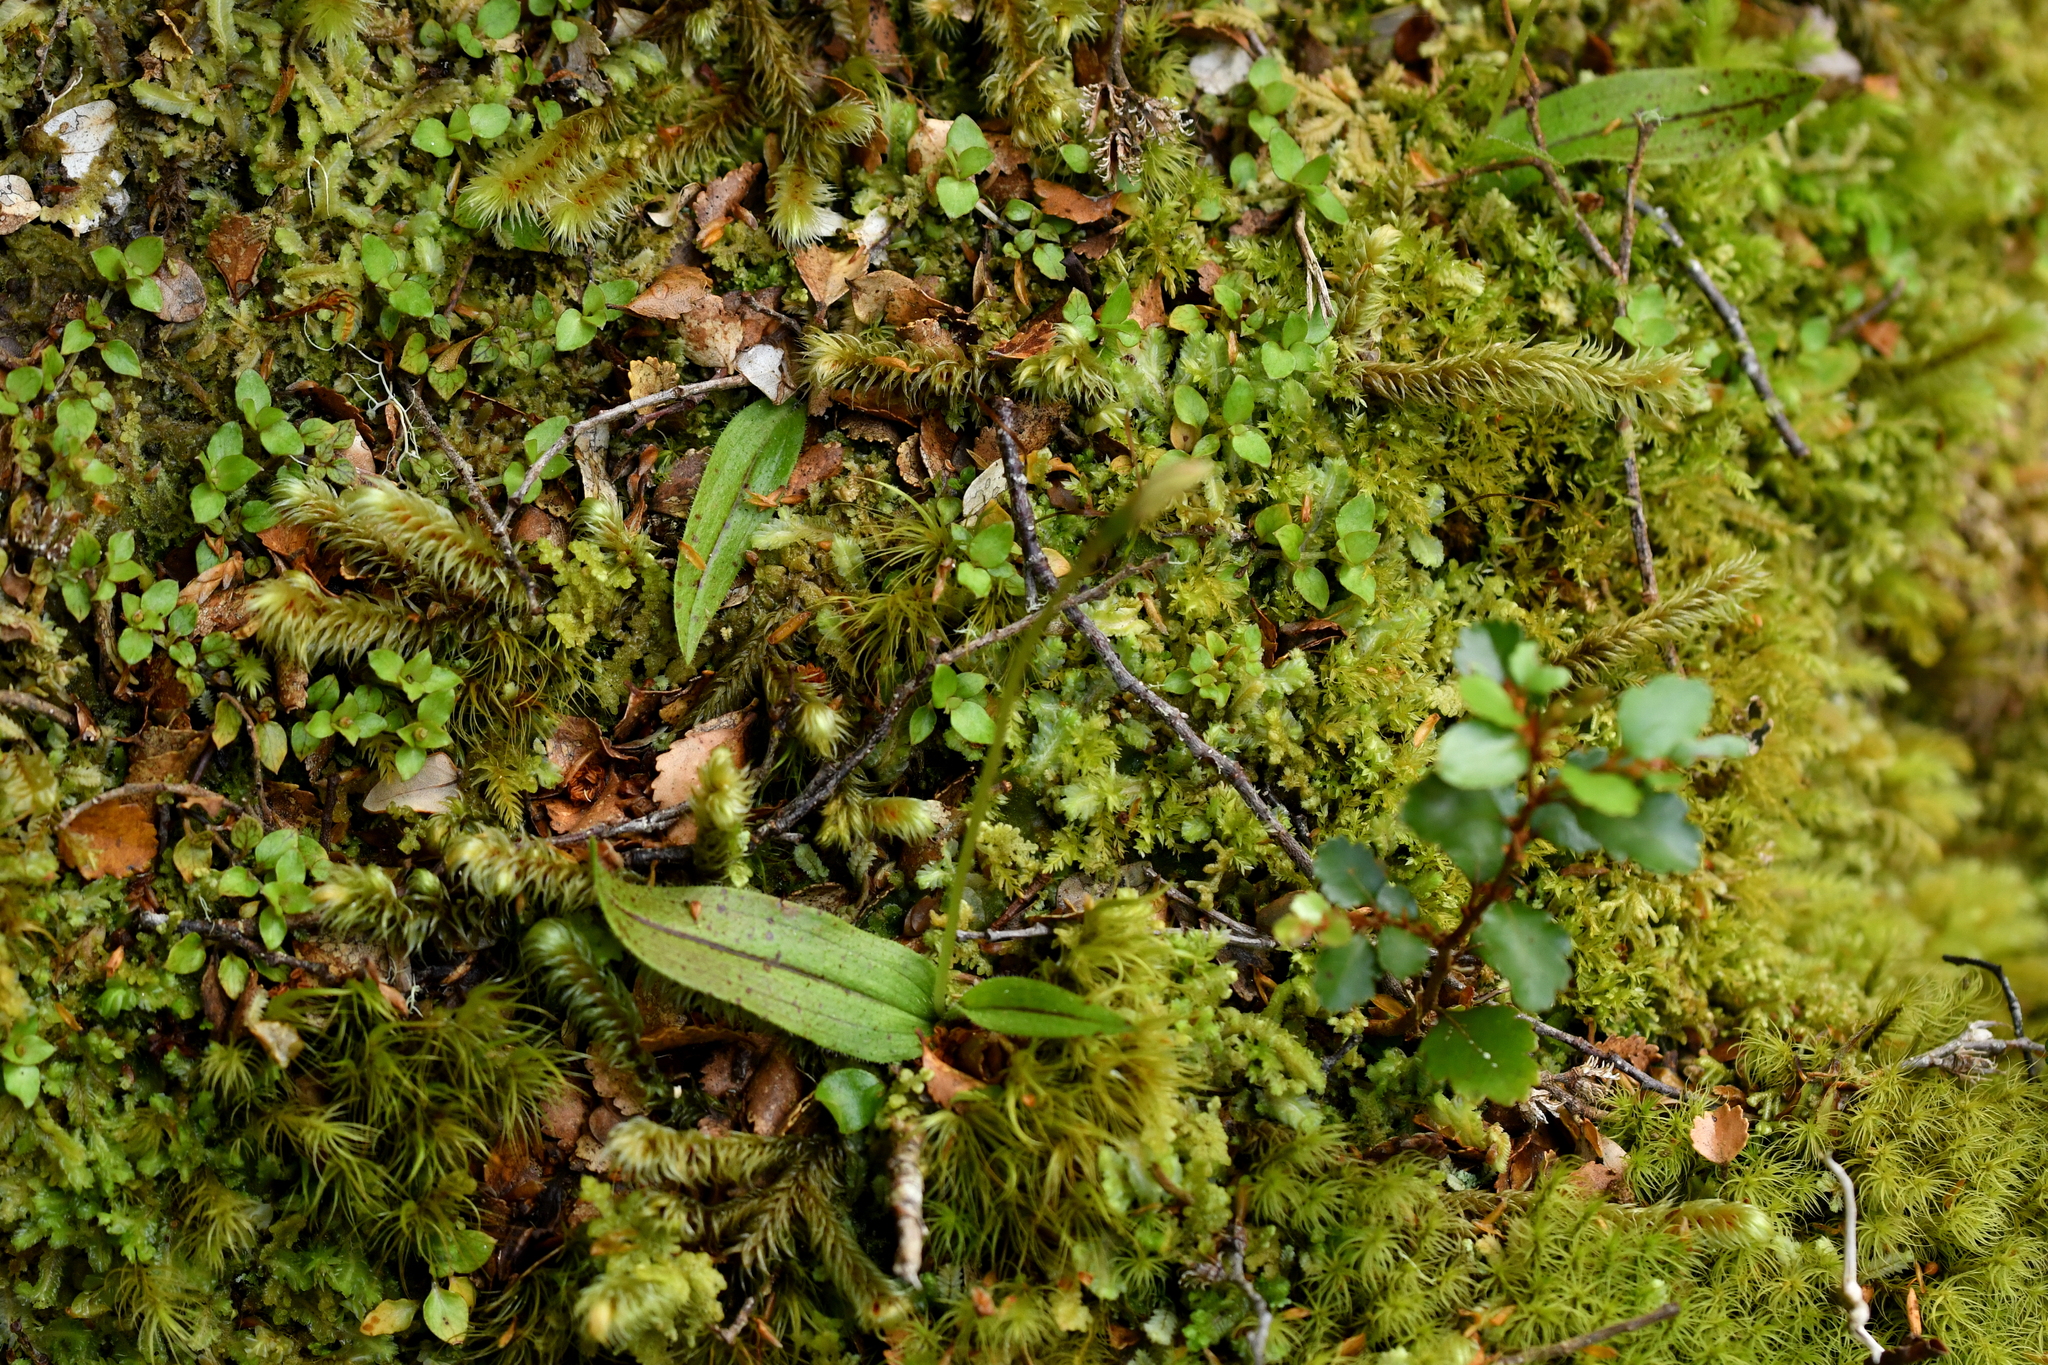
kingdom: Plantae
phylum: Tracheophyta
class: Liliopsida
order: Asparagales
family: Orchidaceae
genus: Aporostylis
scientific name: Aporostylis bifolia
